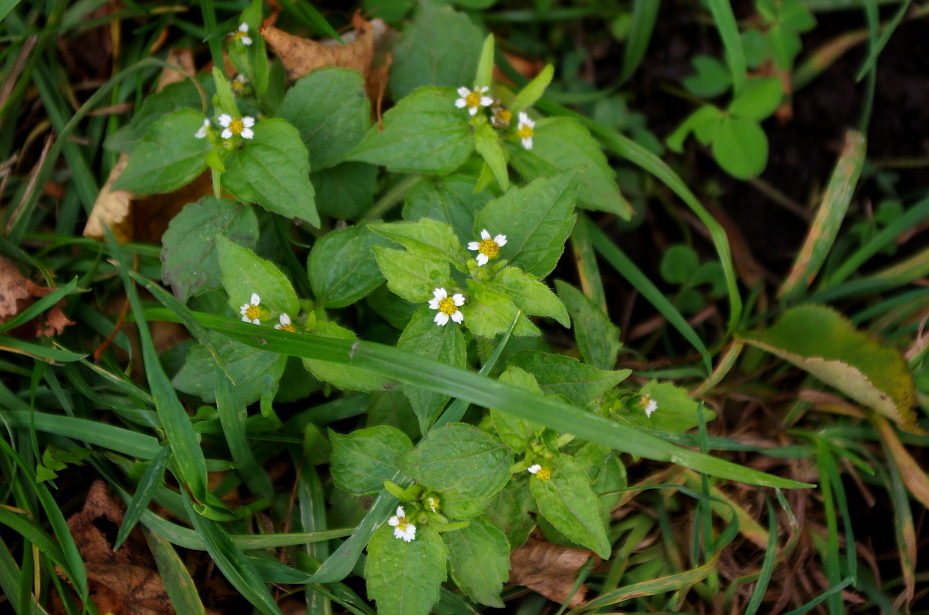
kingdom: Plantae
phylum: Tracheophyta
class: Magnoliopsida
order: Asterales
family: Asteraceae
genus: Galinsoga
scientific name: Galinsoga quadriradiata
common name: Shaggy soldier
